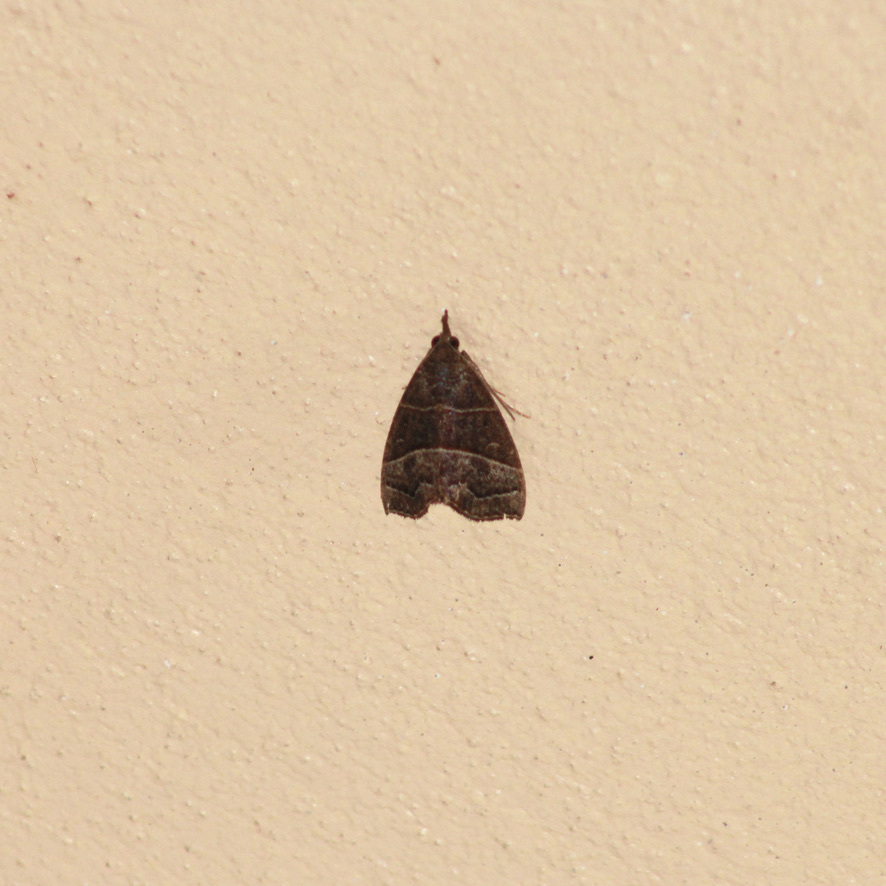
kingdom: Animalia
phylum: Arthropoda
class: Insecta
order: Lepidoptera
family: Erebidae
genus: Hypena
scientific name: Hypena
